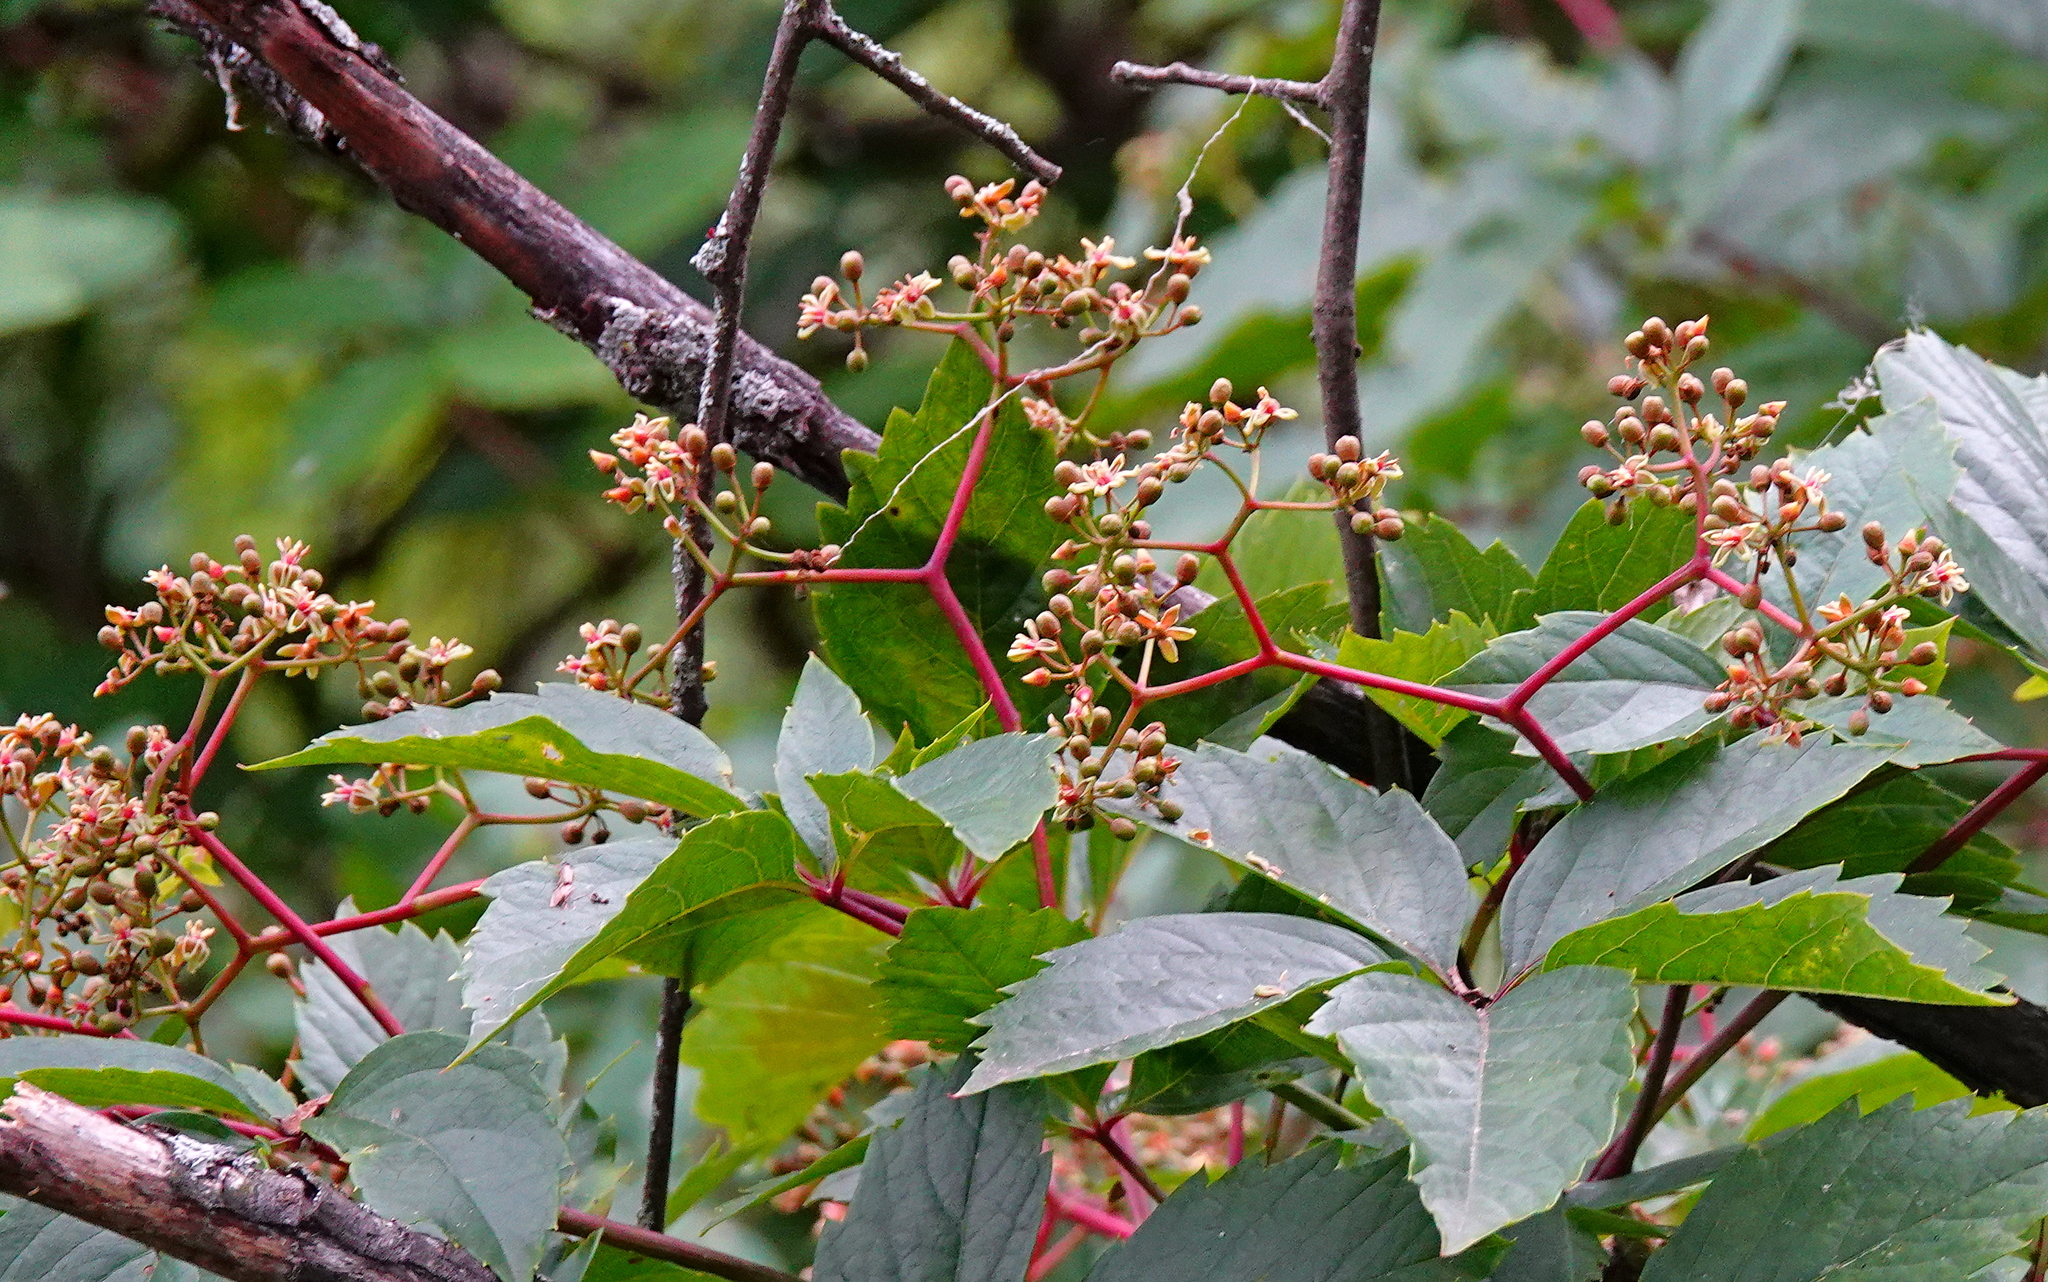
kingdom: Plantae
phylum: Tracheophyta
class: Magnoliopsida
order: Vitales
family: Vitaceae
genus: Parthenocissus
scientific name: Parthenocissus quinquefolia
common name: Virginia-creeper
